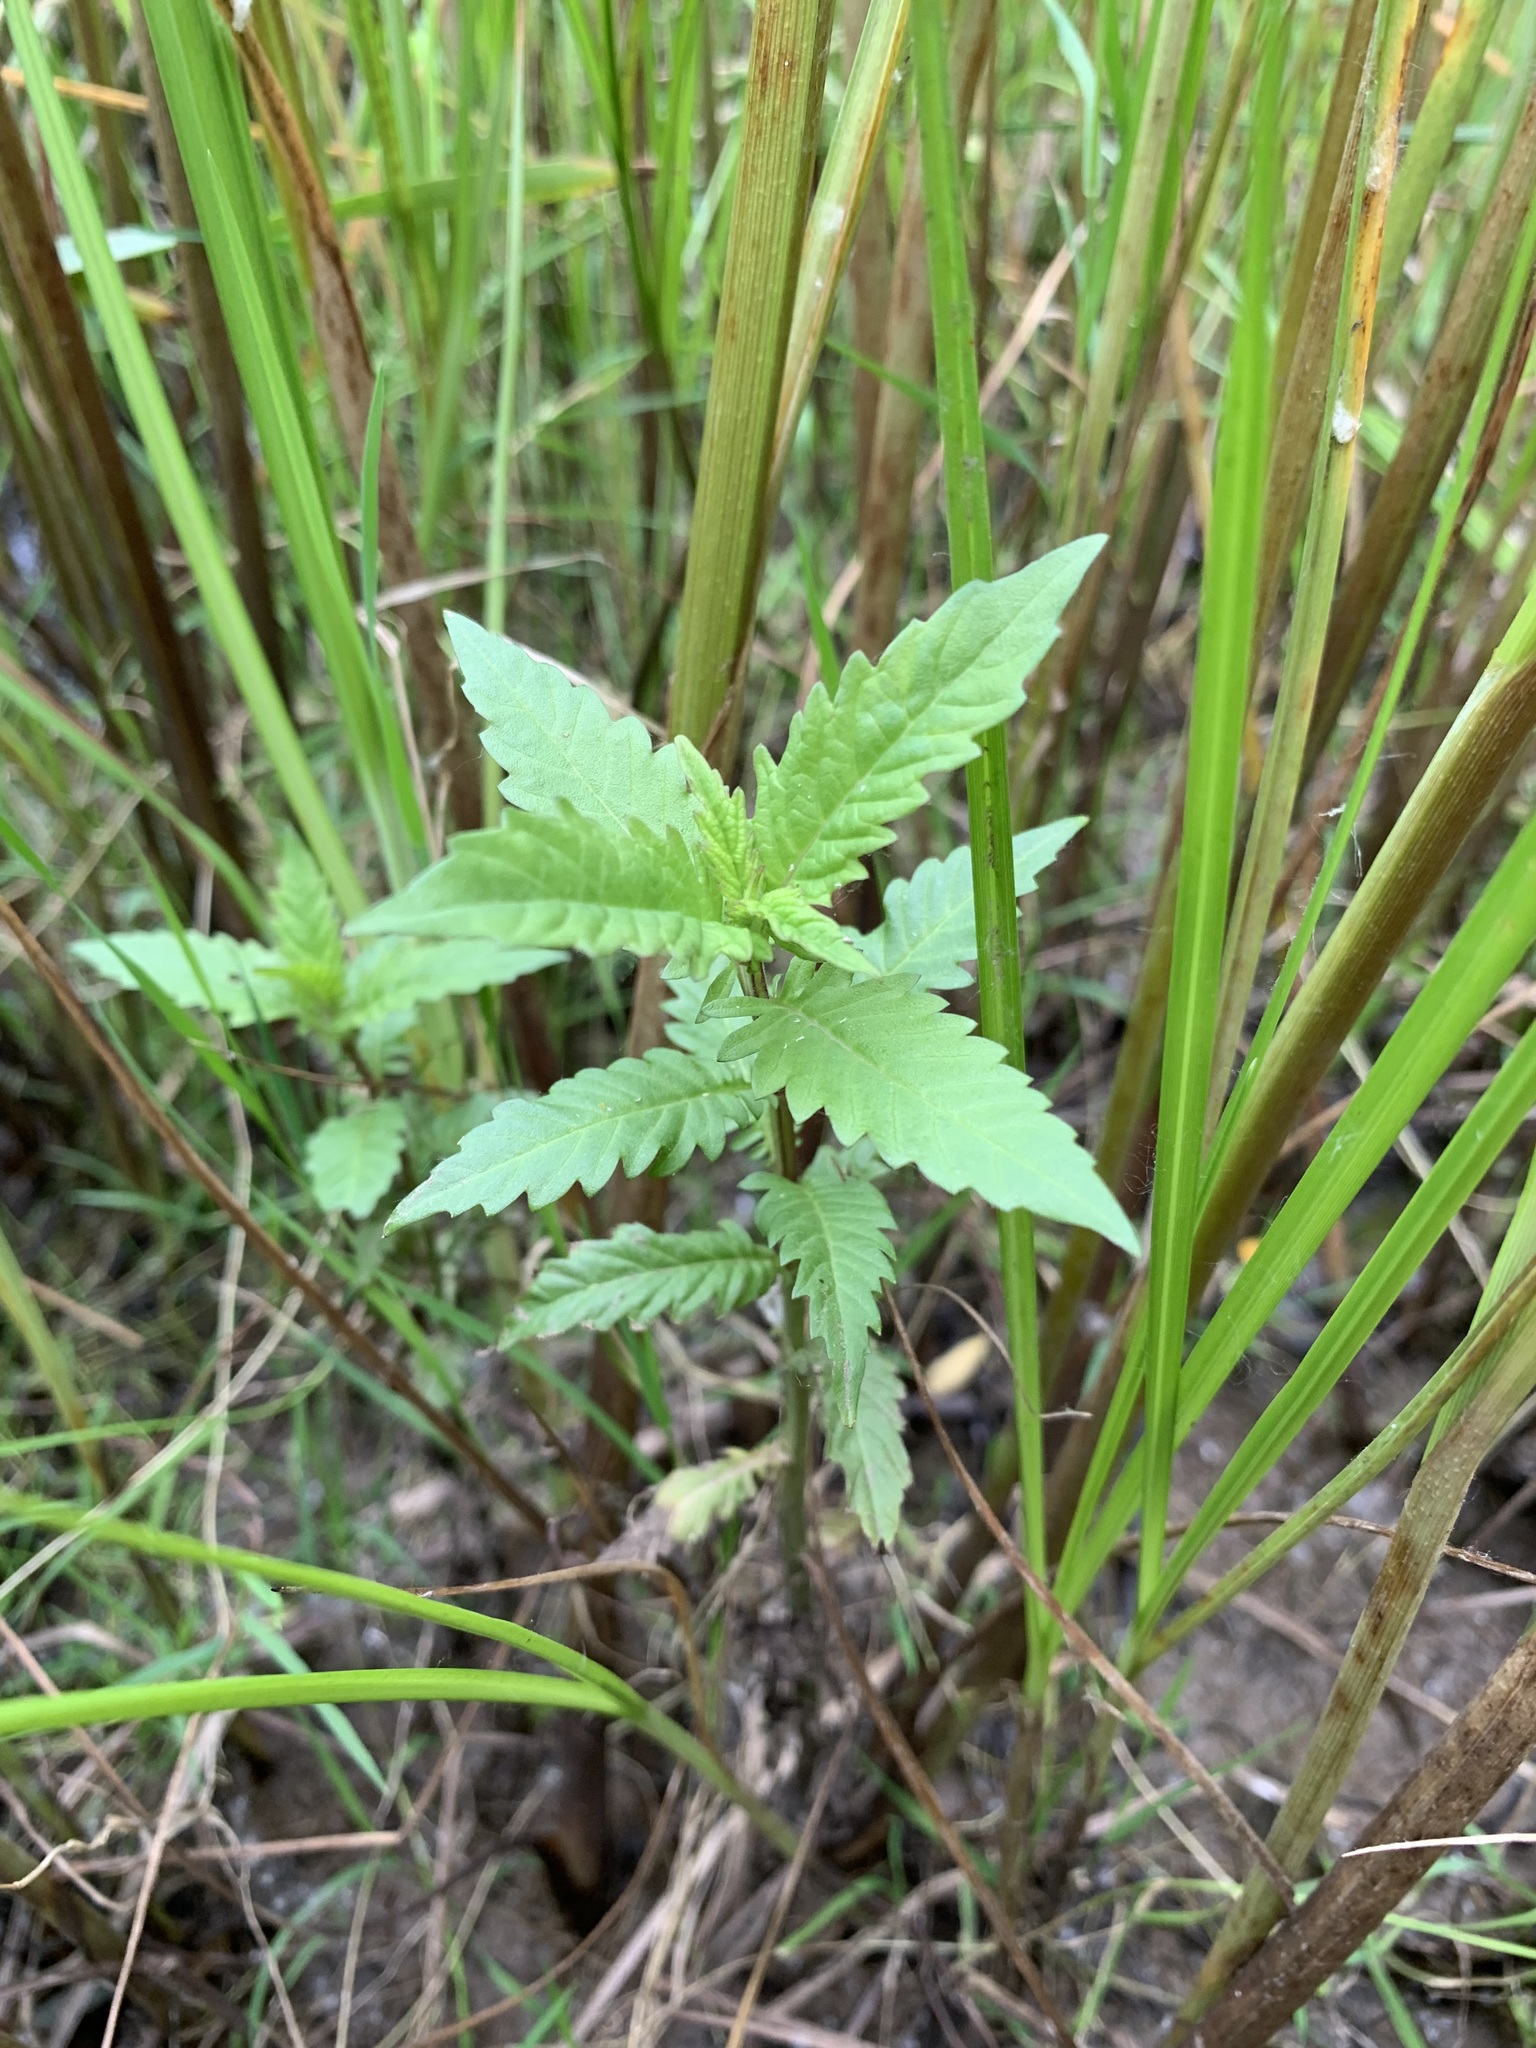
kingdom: Plantae
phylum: Tracheophyta
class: Magnoliopsida
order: Lamiales
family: Lamiaceae
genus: Lycopus
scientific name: Lycopus europaeus
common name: European bugleweed
